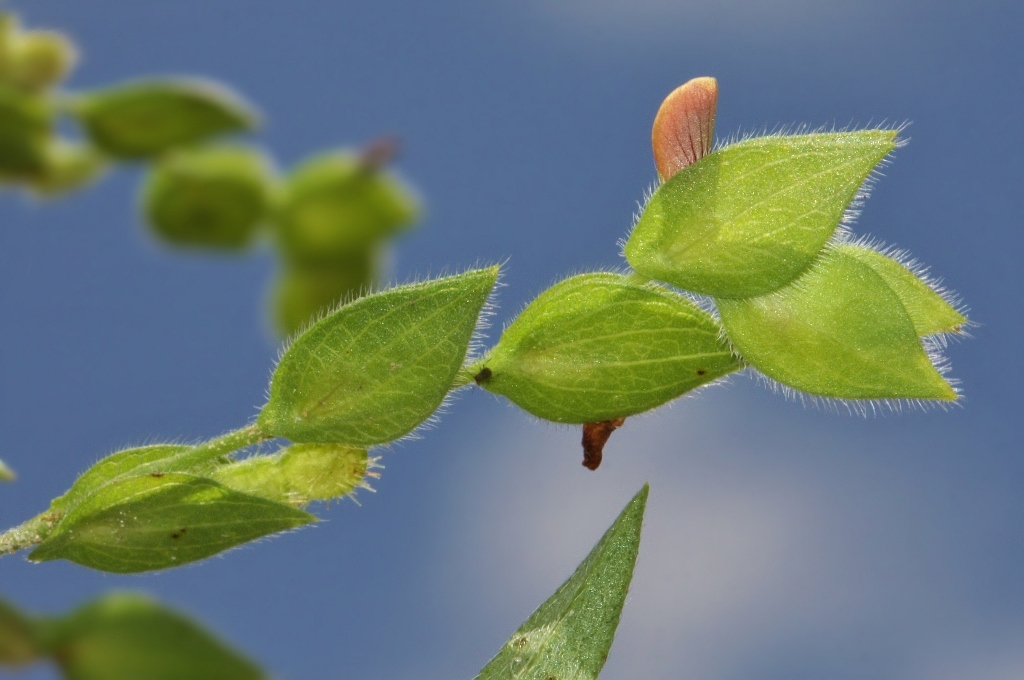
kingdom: Plantae
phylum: Tracheophyta
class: Magnoliopsida
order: Fabales
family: Fabaceae
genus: Zornia
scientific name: Zornia glochidiata
